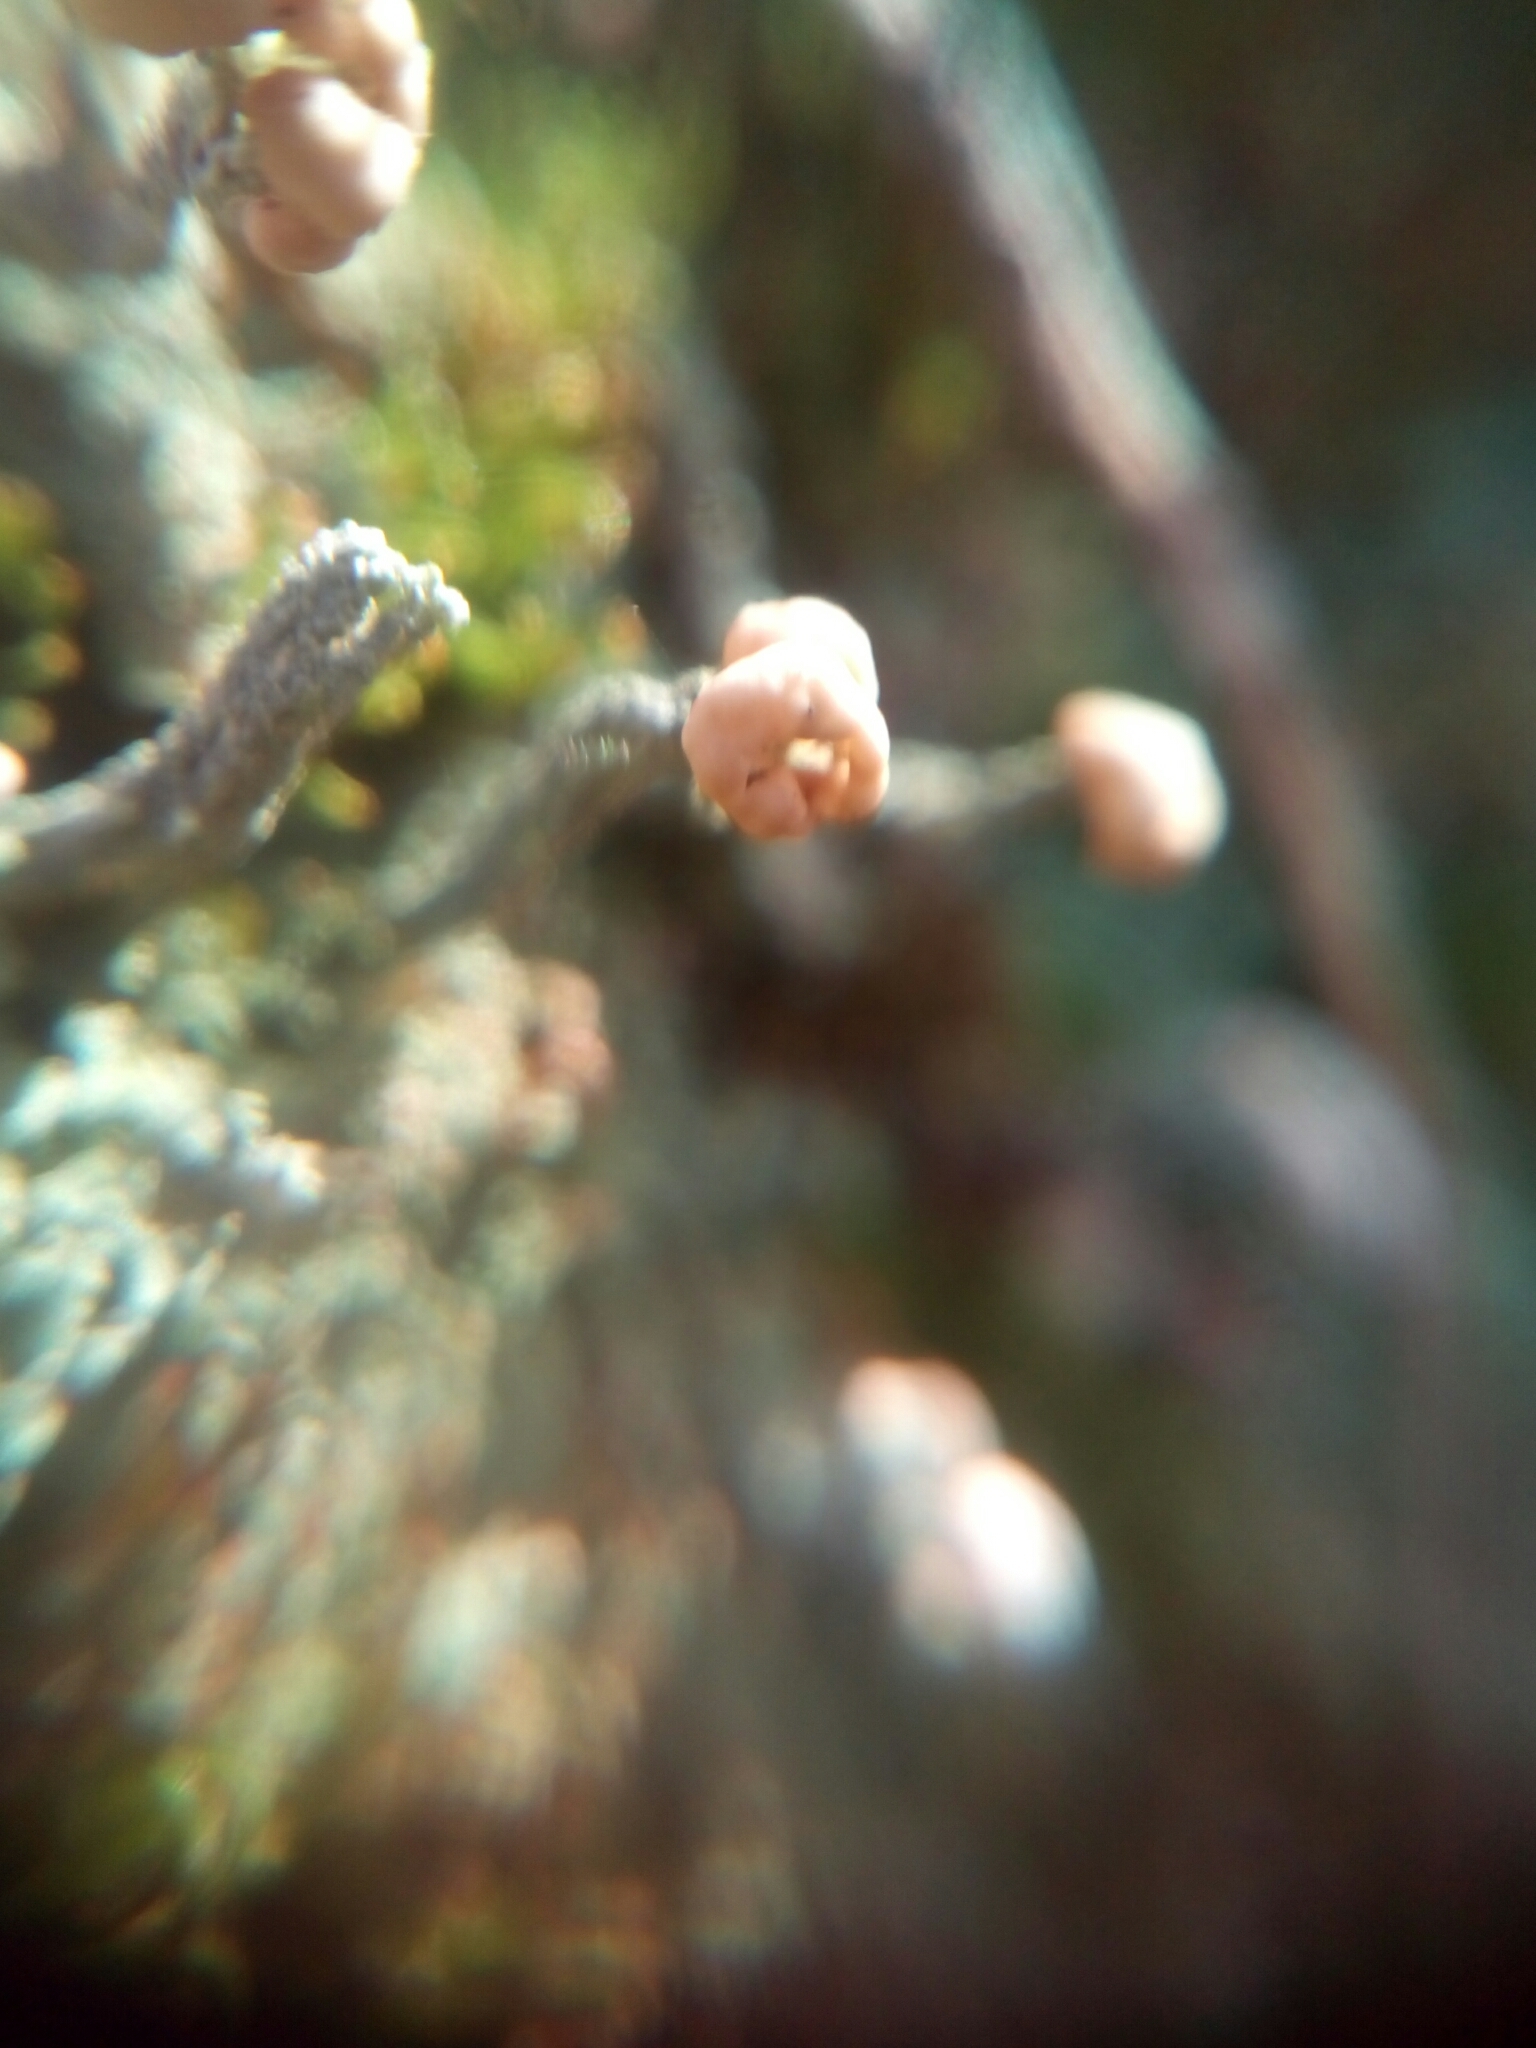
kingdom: Fungi
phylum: Ascomycota
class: Lecanoromycetes
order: Lecanorales
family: Cladoniaceae
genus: Cladonia
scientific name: Cladonia peziziformis
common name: Cup lichen
